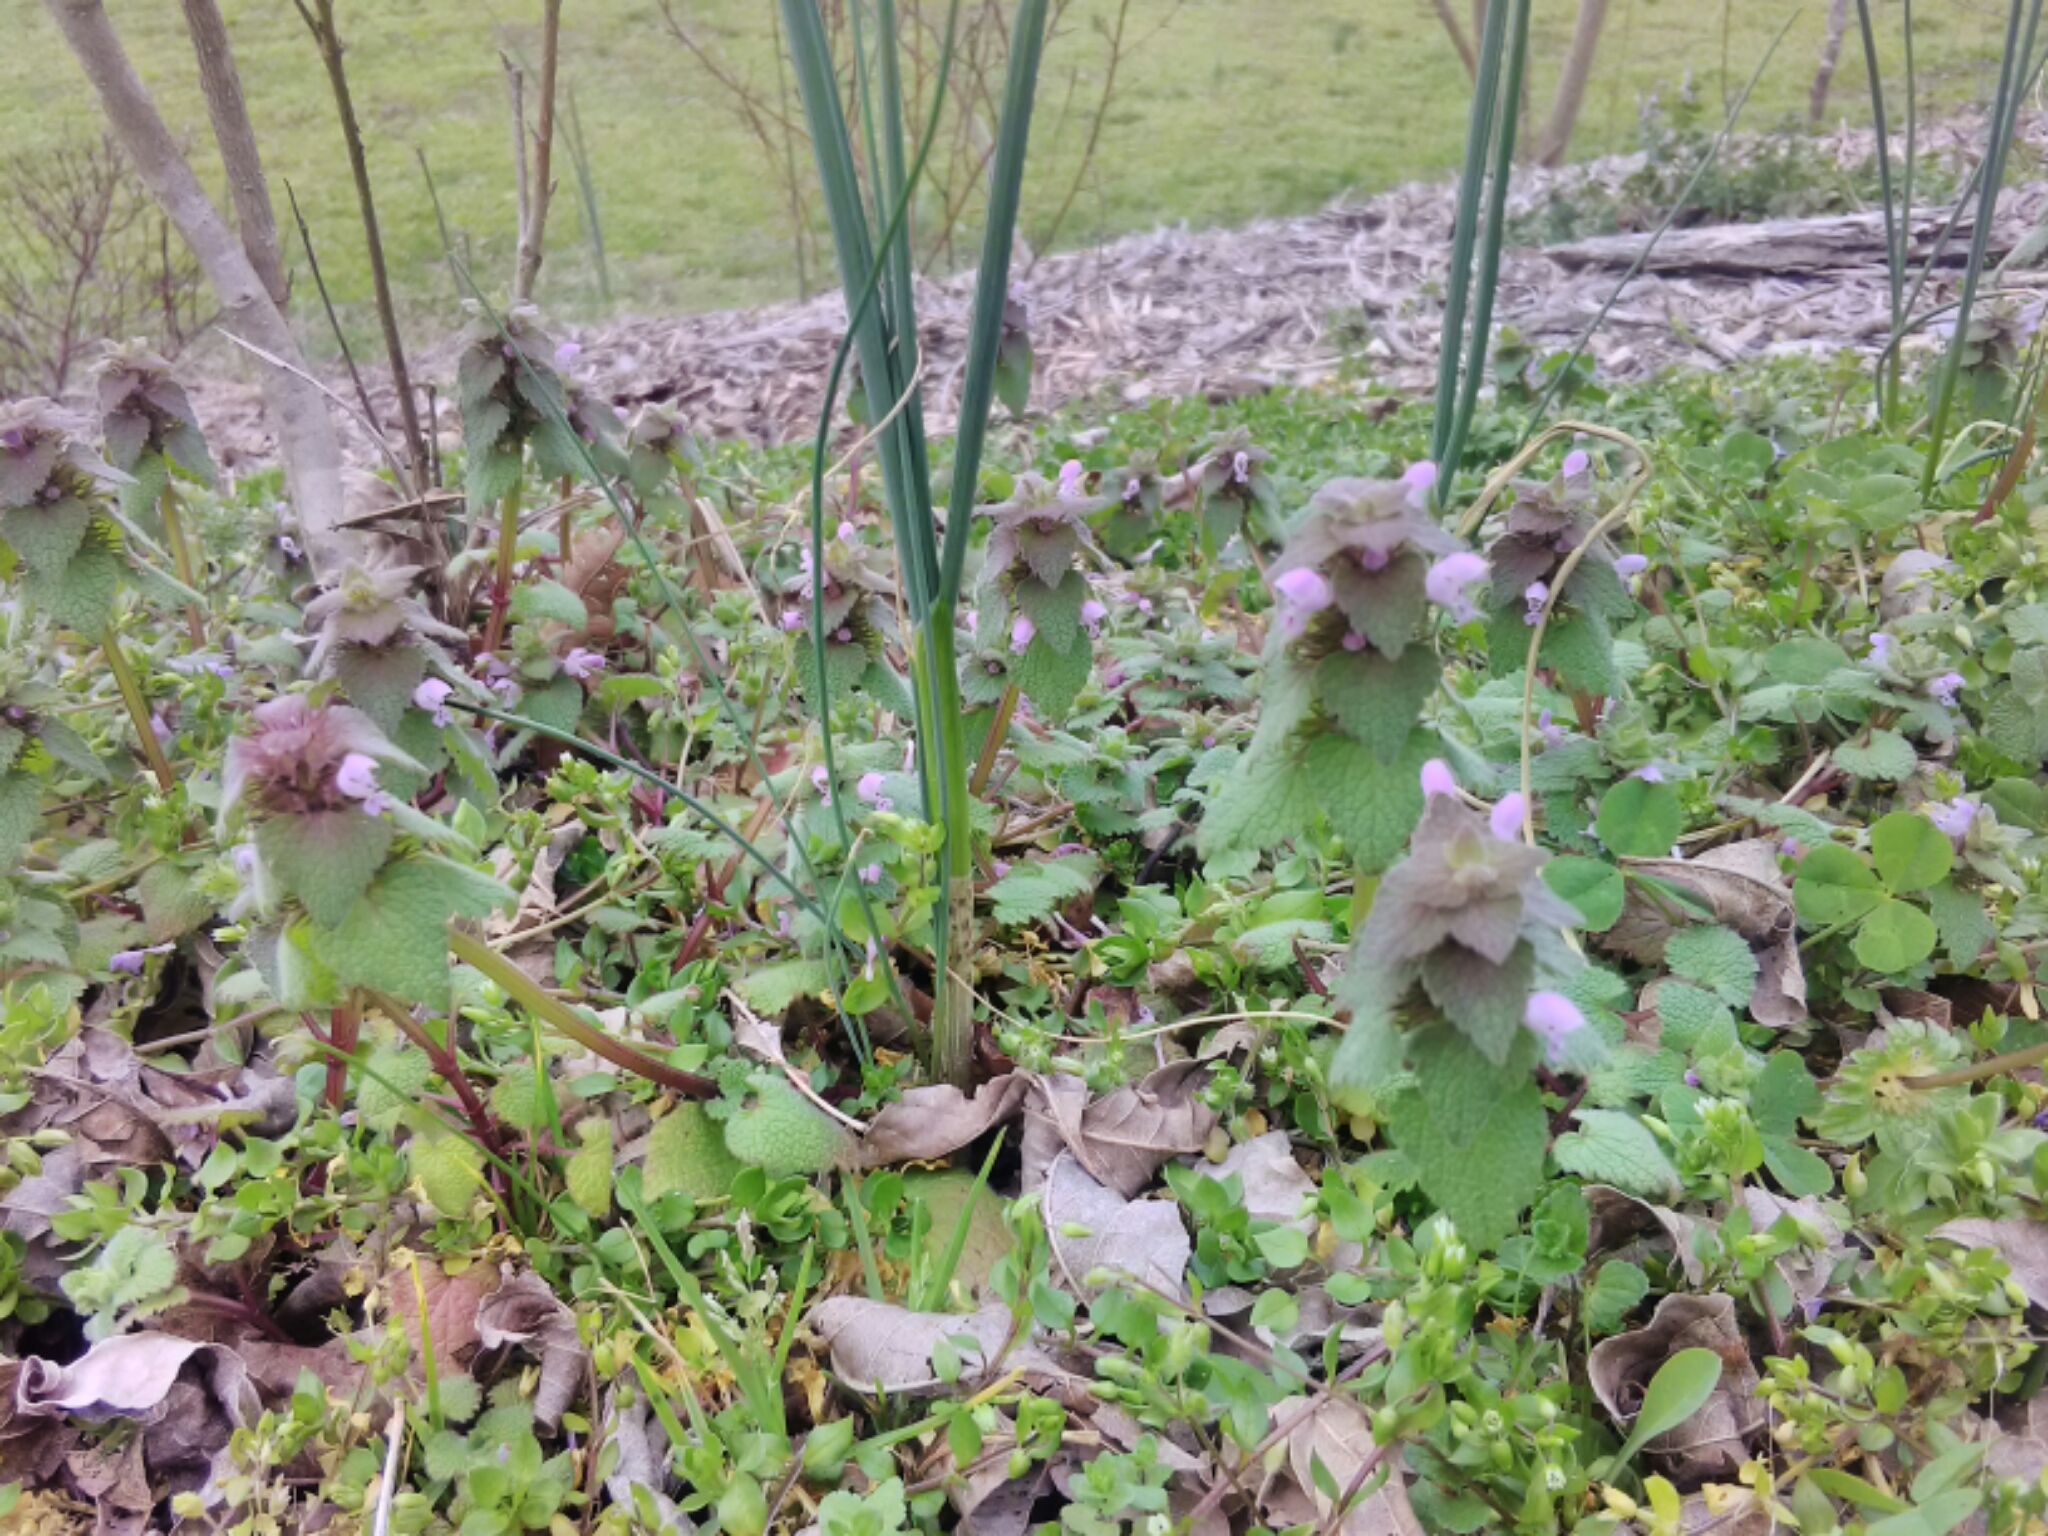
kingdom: Plantae
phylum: Tracheophyta
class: Magnoliopsida
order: Lamiales
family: Lamiaceae
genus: Lamium
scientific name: Lamium purpureum
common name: Red dead-nettle
